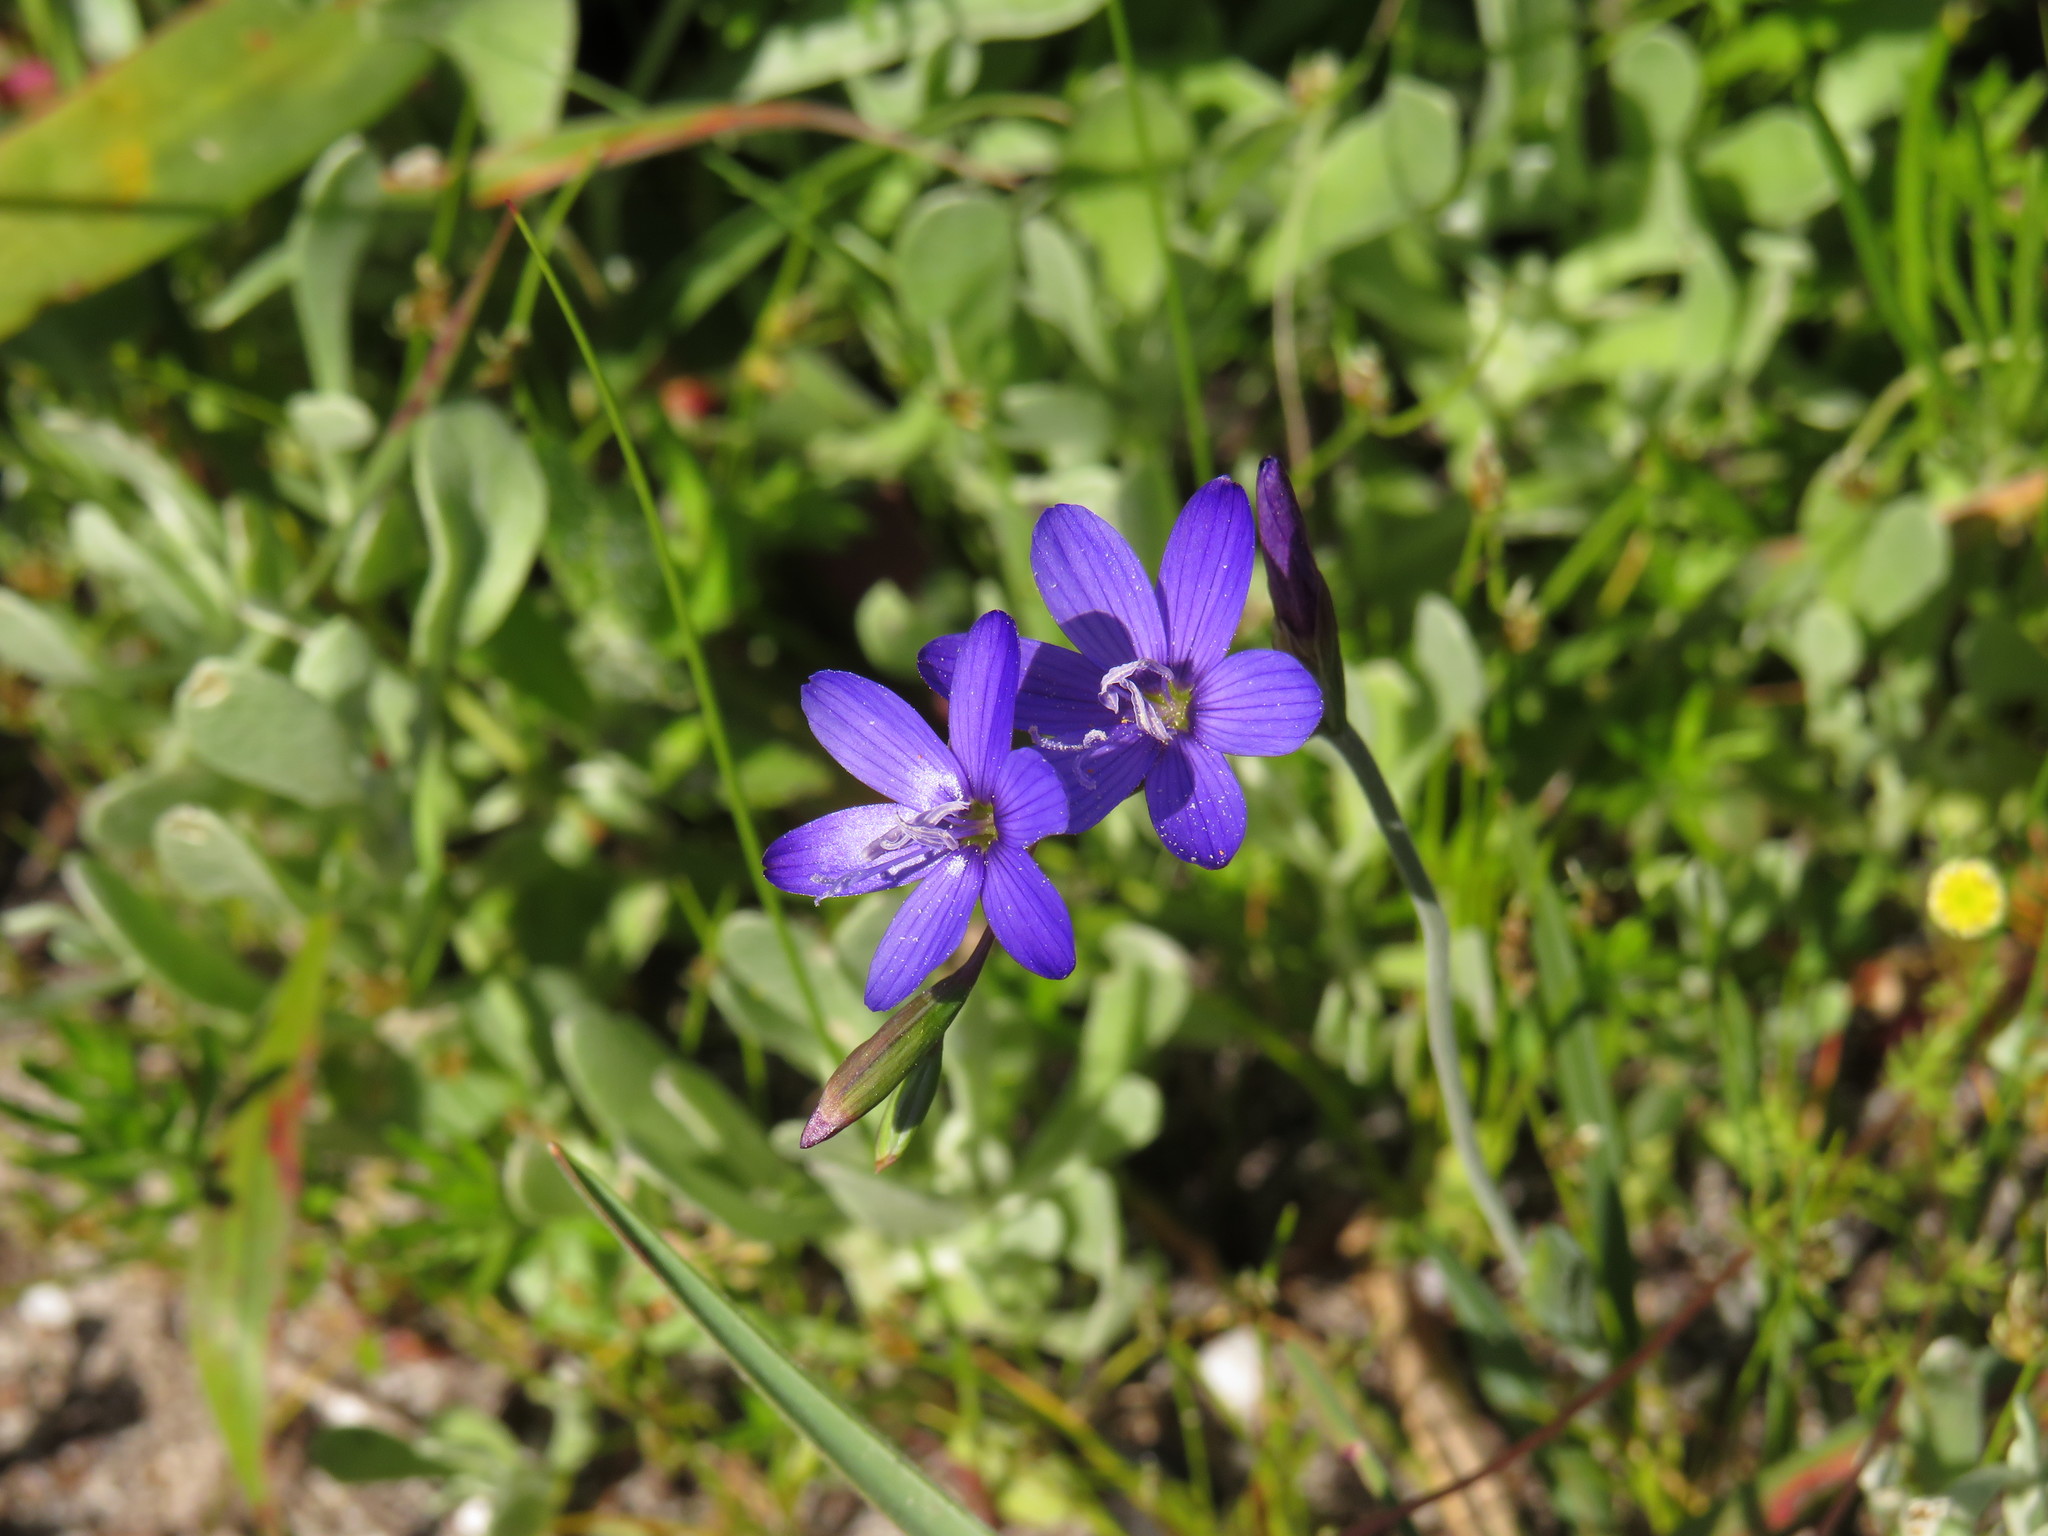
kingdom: Plantae
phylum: Tracheophyta
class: Liliopsida
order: Asparagales
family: Iridaceae
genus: Geissorhiza
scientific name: Geissorhiza aspera
